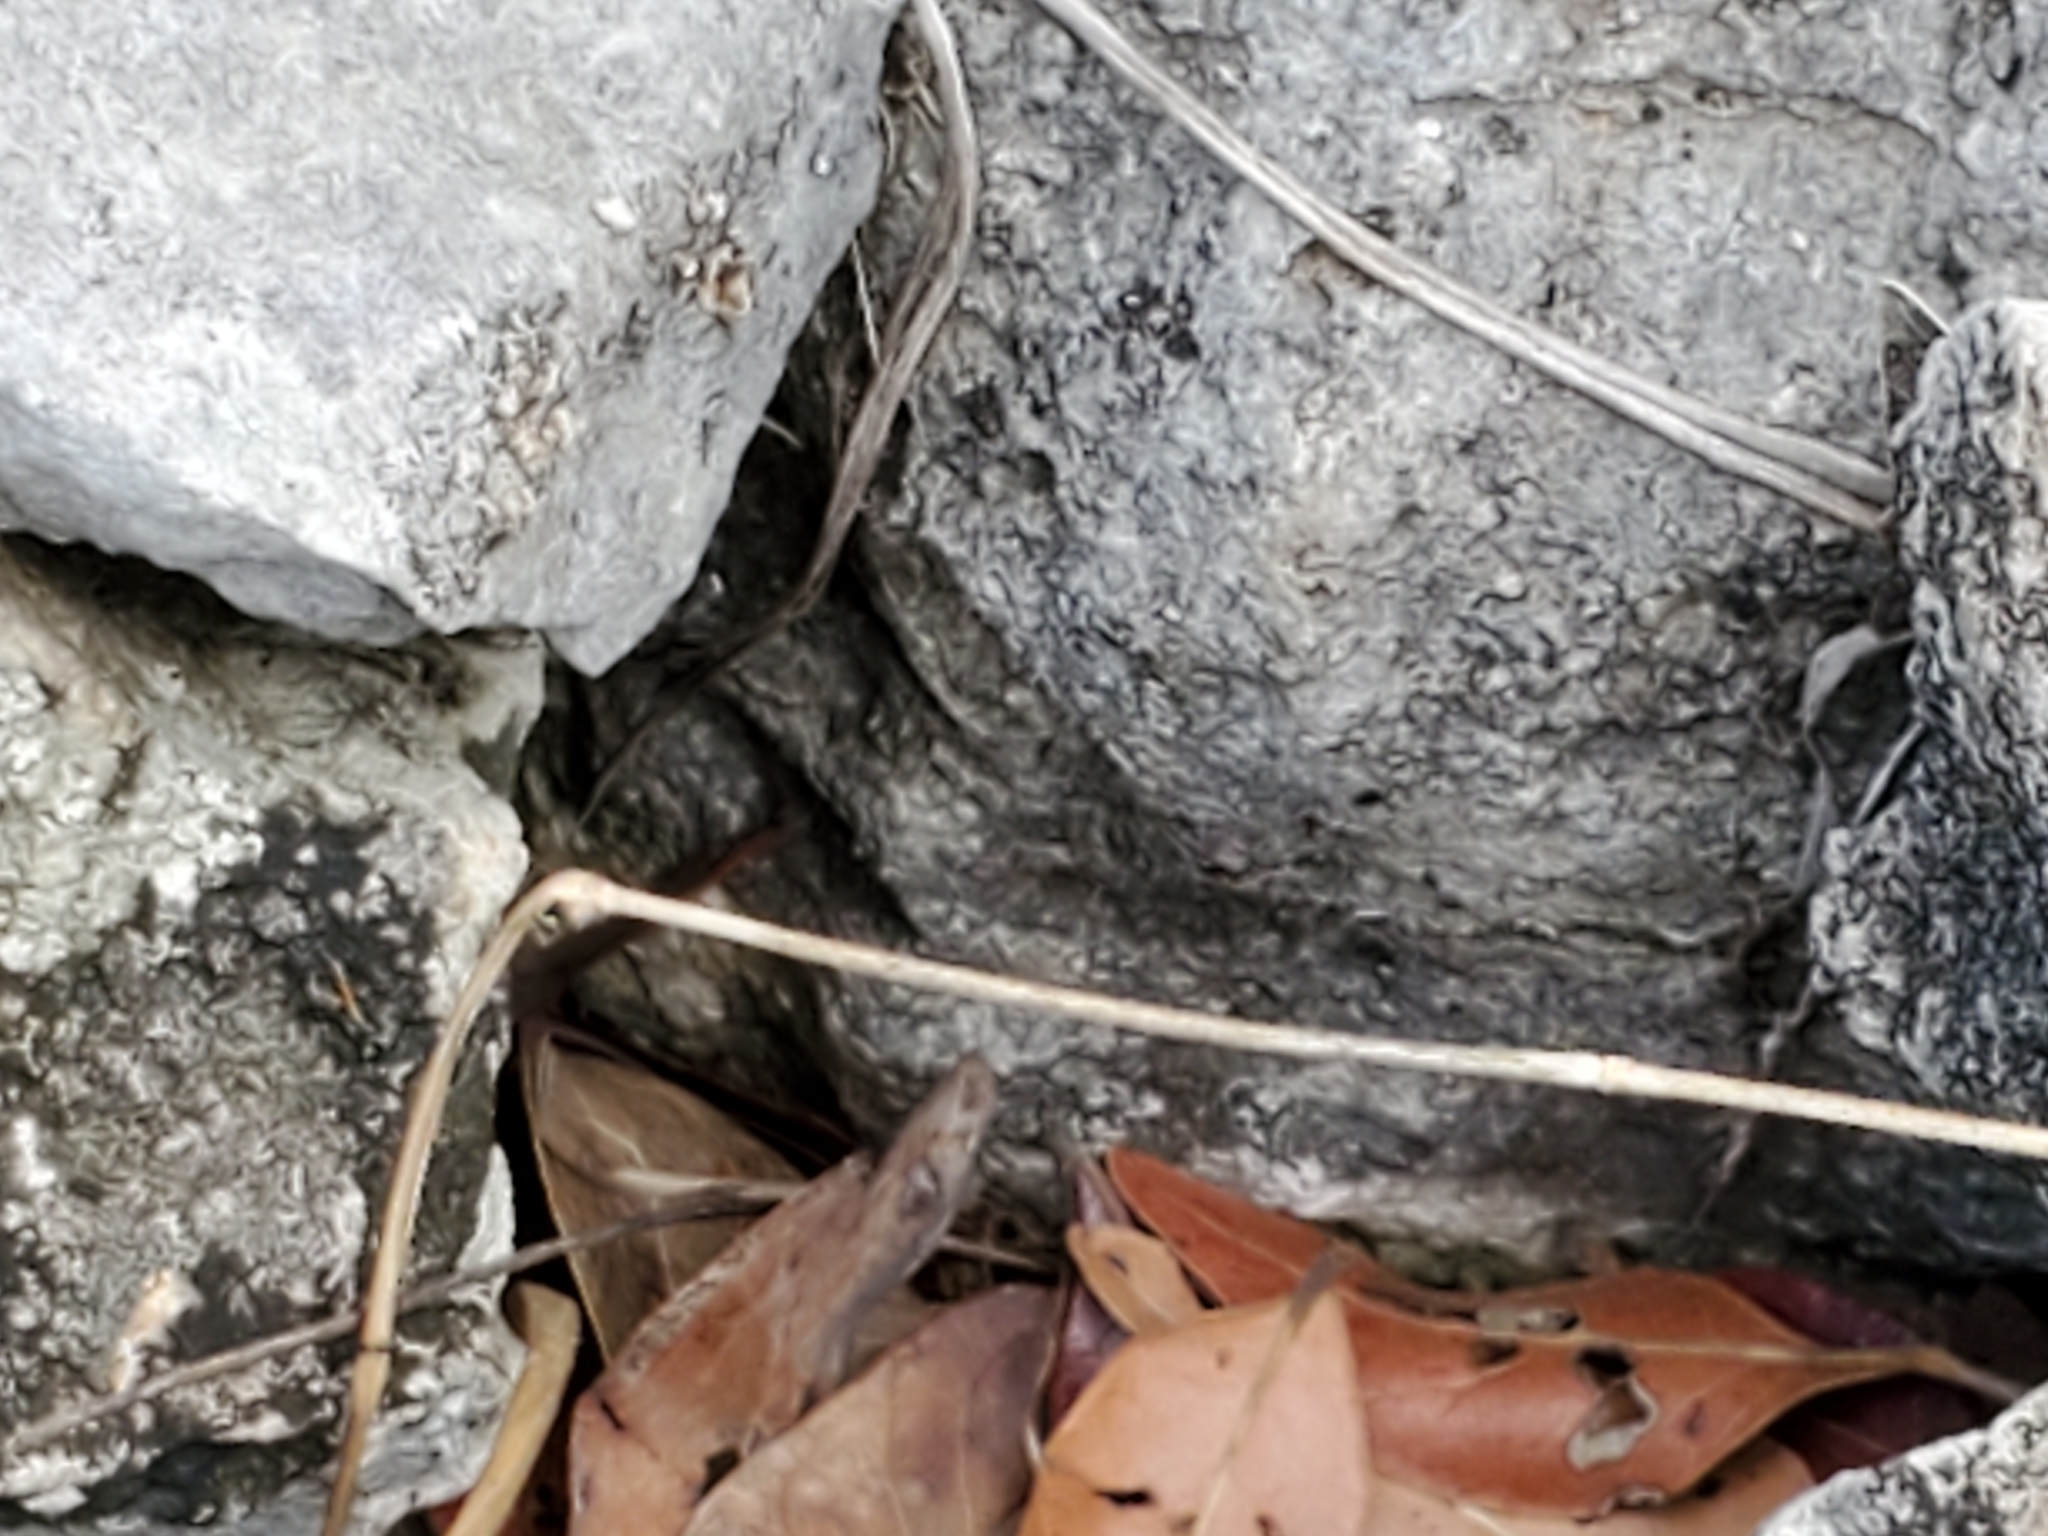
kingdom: Plantae
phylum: Tracheophyta
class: Magnoliopsida
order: Ranunculales
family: Ranunculaceae
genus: Anemone
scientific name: Anemone edwardsiana
